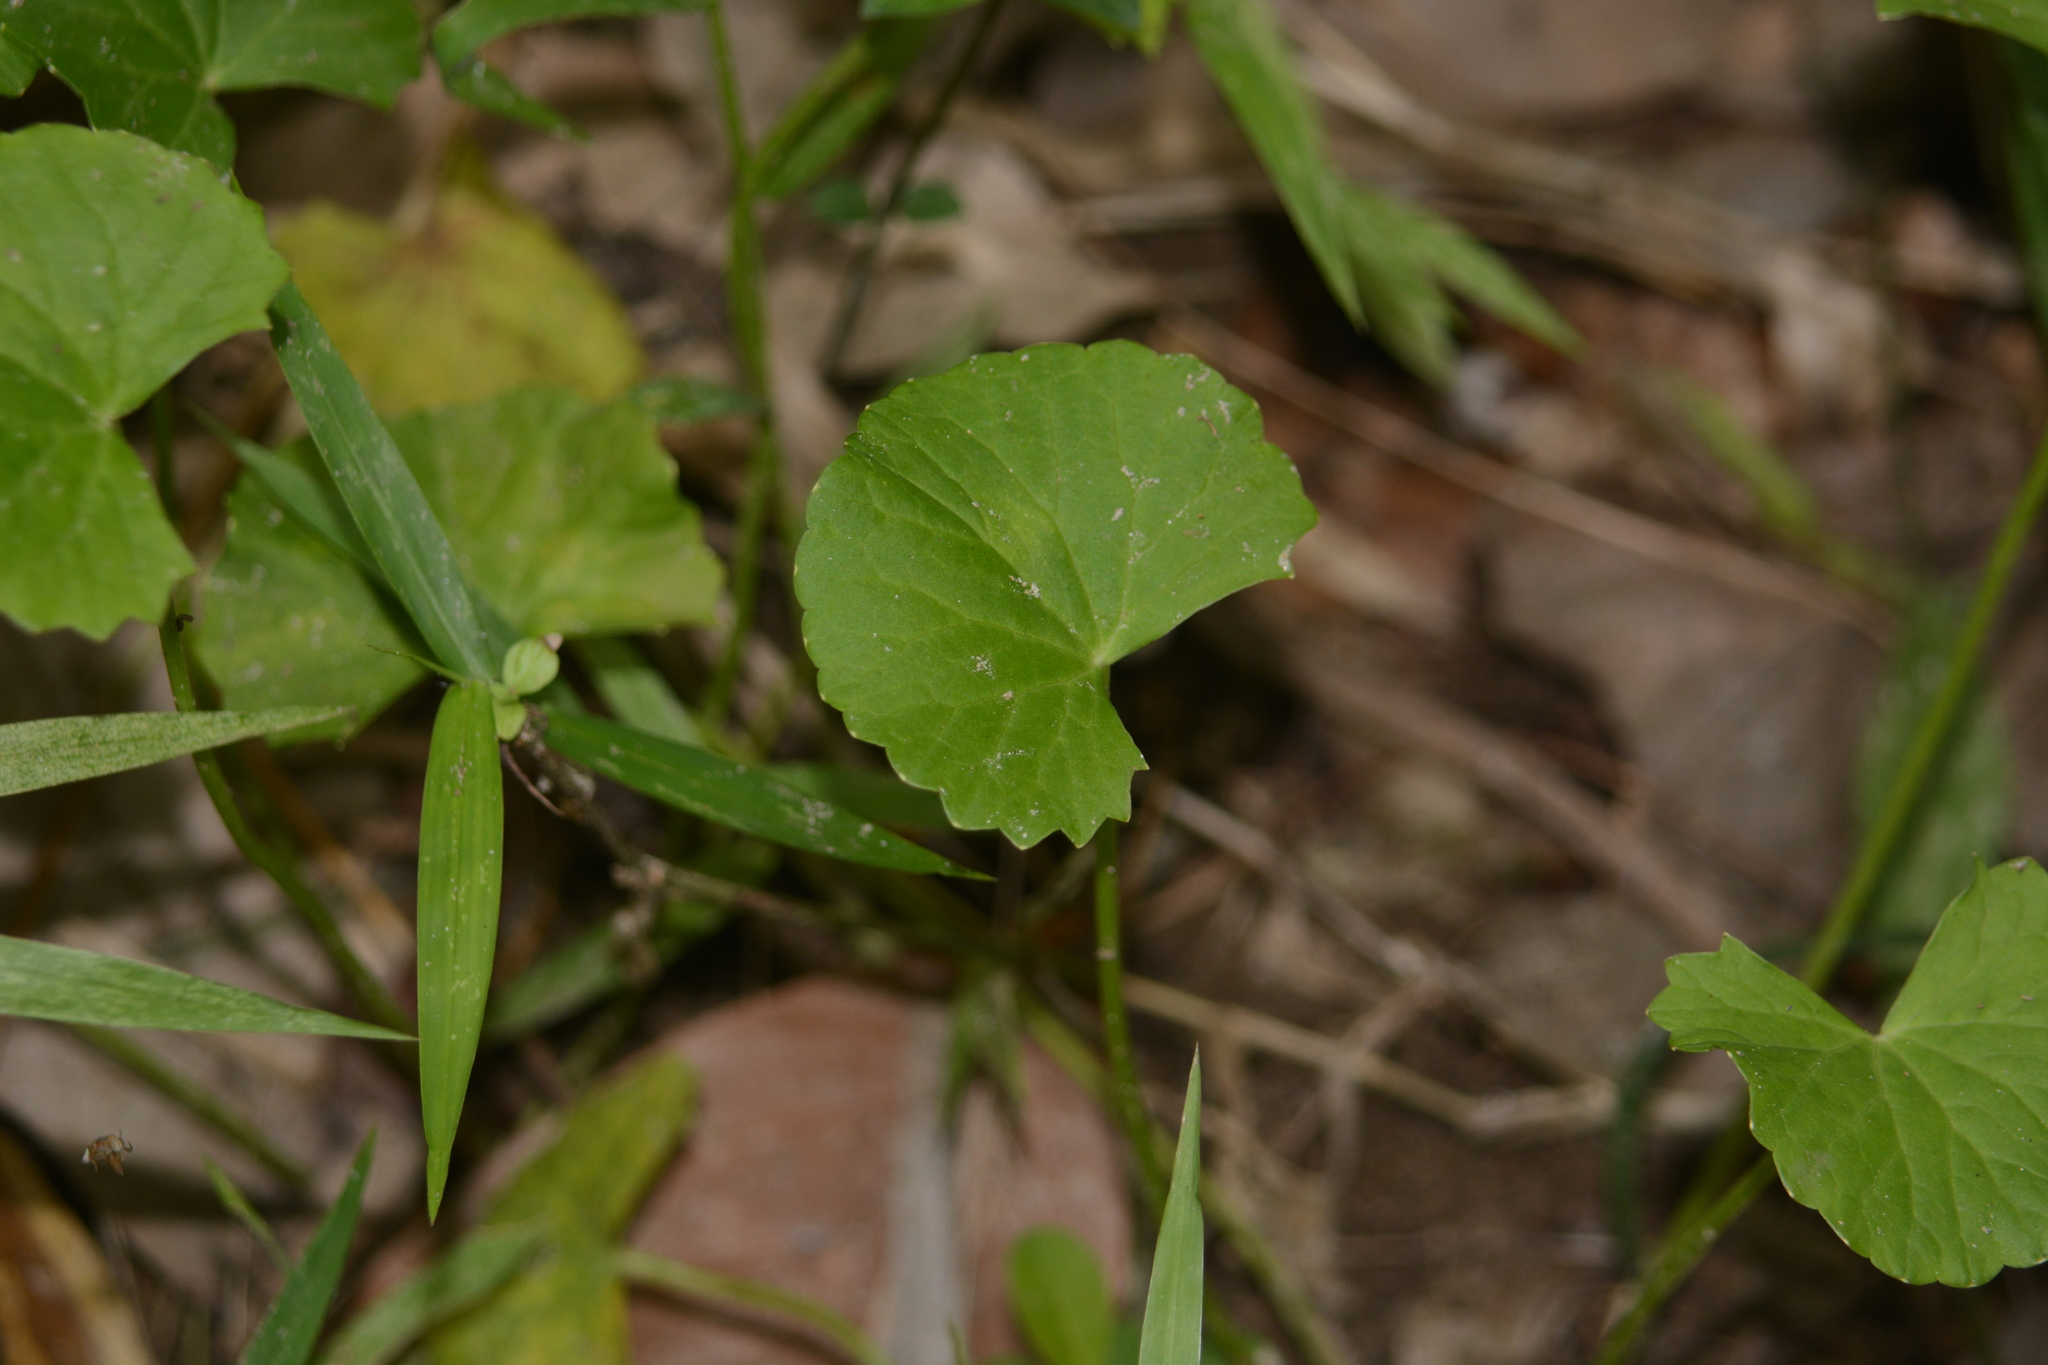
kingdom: Plantae
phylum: Tracheophyta
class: Magnoliopsida
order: Apiales
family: Apiaceae
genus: Centella
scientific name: Centella asiatica
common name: Spadeleaf
